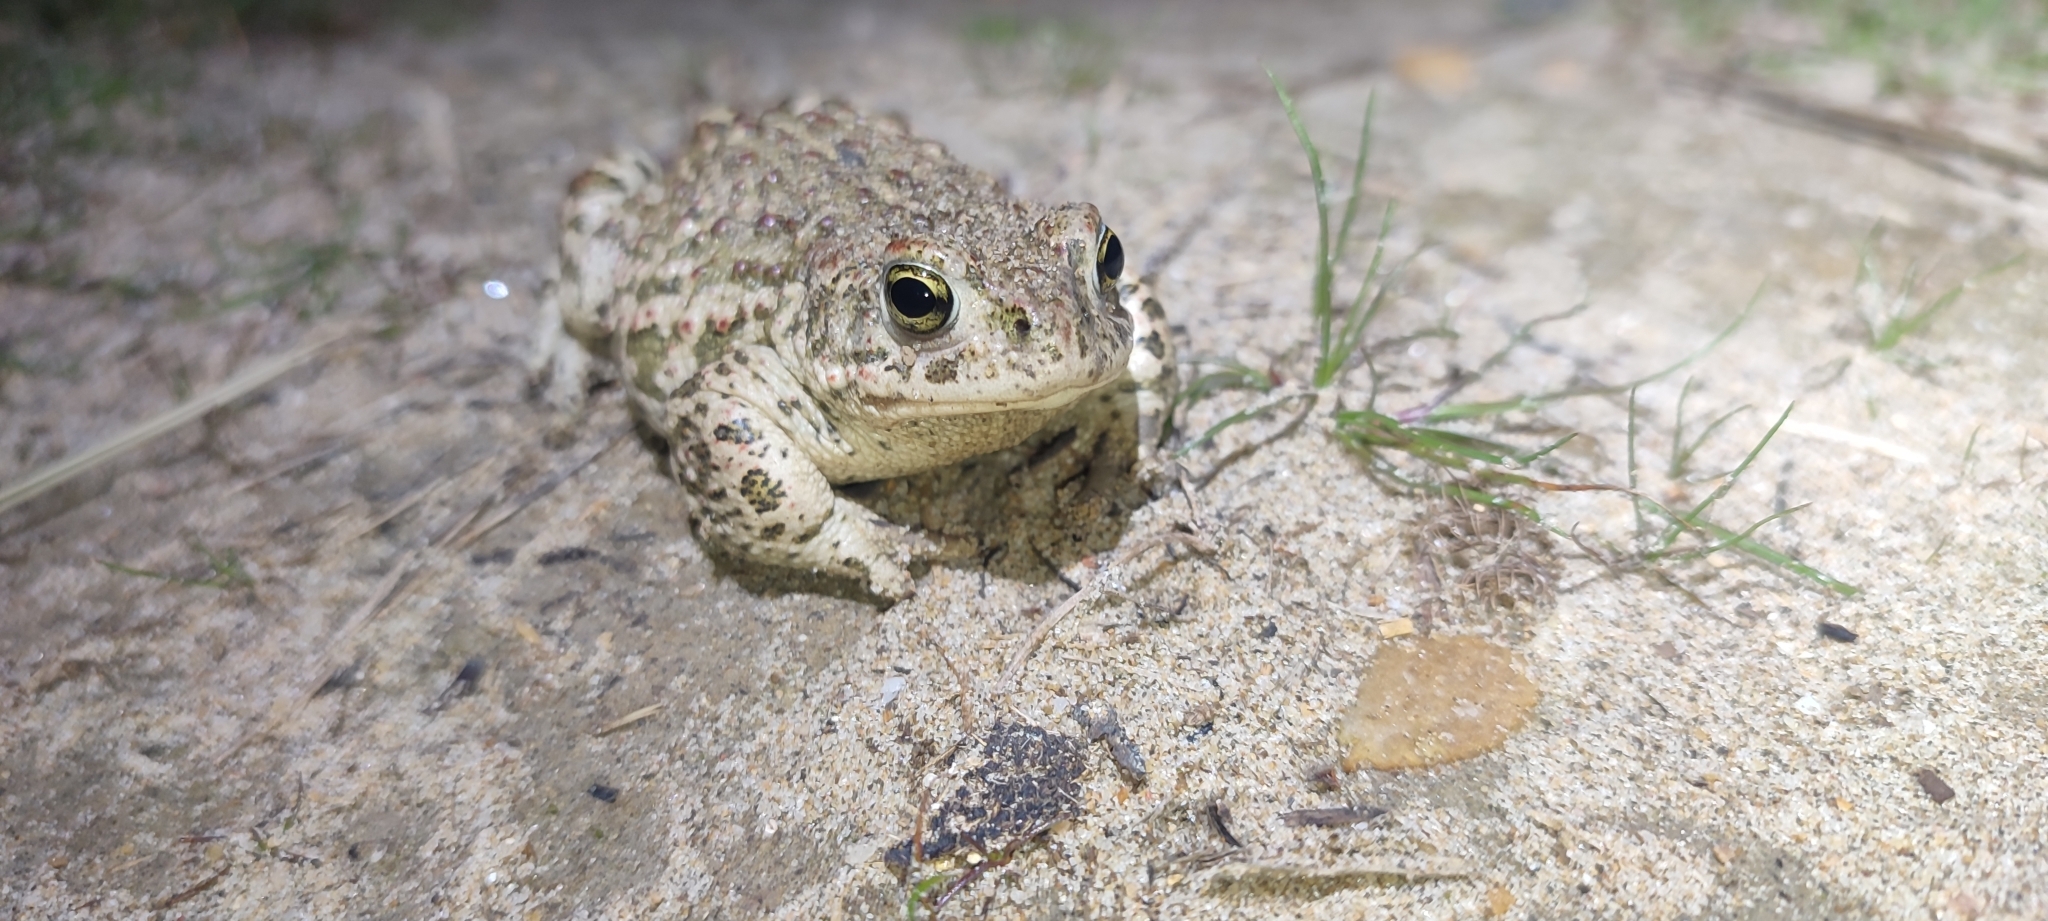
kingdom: Animalia
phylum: Chordata
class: Amphibia
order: Anura
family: Bufonidae
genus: Epidalea
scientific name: Epidalea calamita
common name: Natterjack toad
